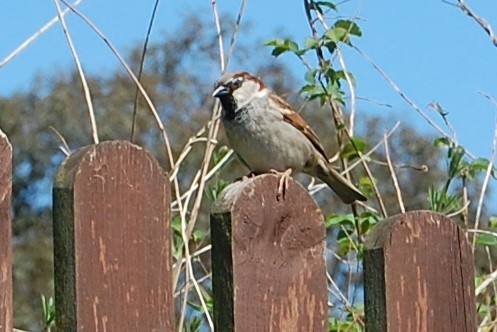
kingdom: Animalia
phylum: Chordata
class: Aves
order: Passeriformes
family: Passeridae
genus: Passer
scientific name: Passer domesticus
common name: House sparrow
